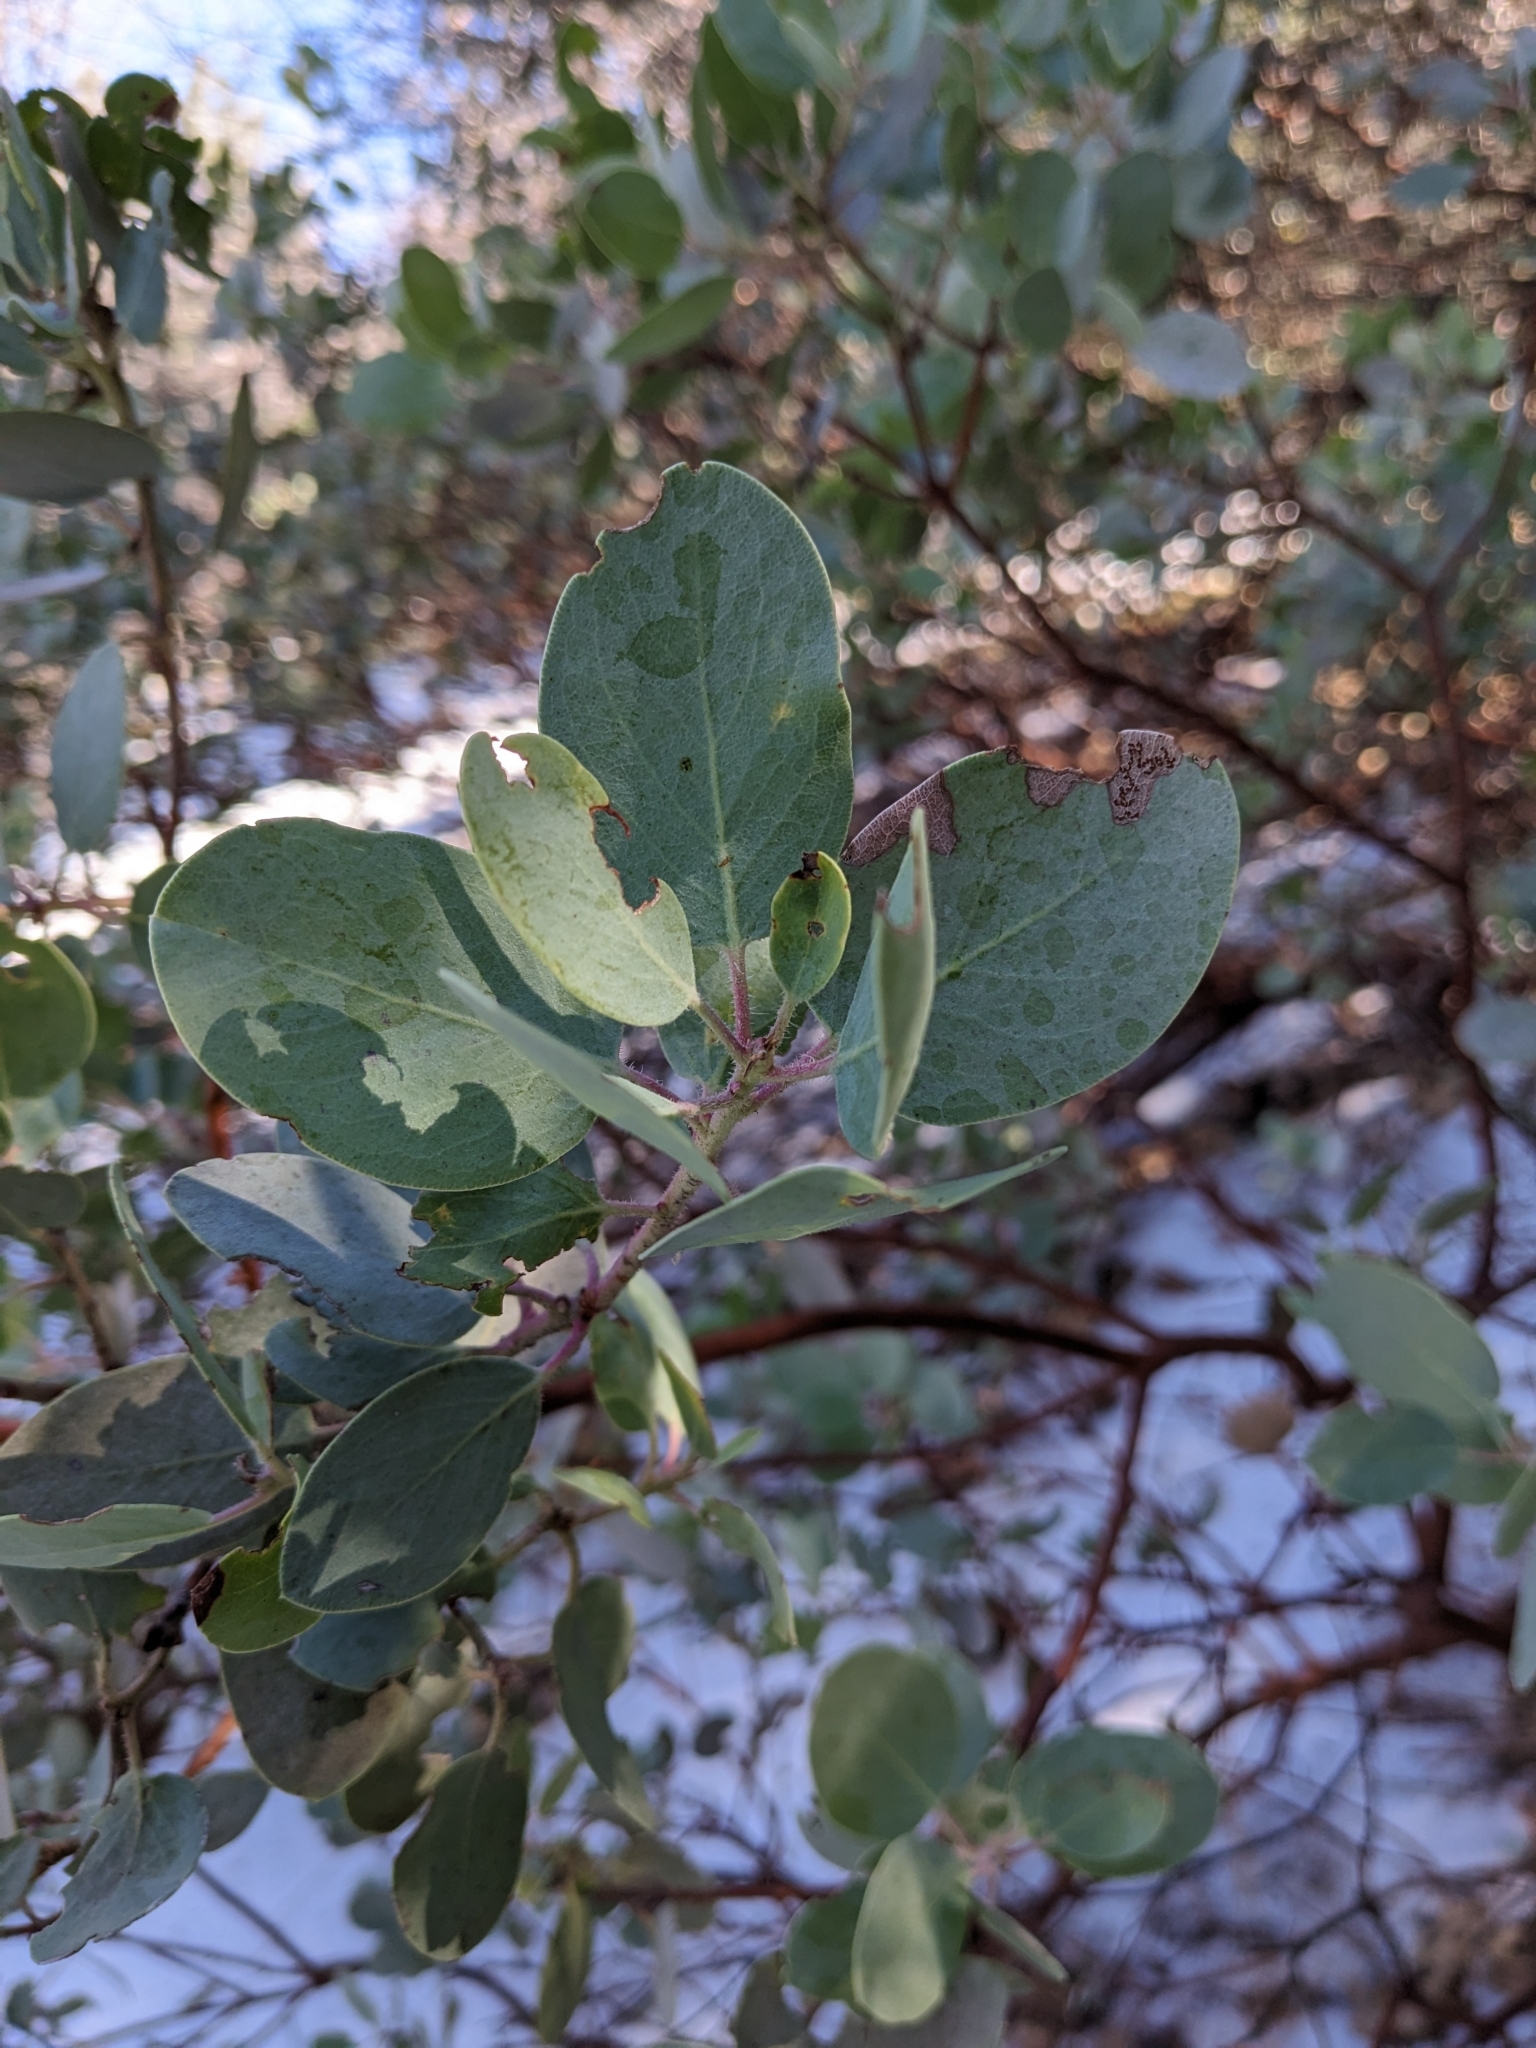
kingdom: Plantae
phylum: Tracheophyta
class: Magnoliopsida
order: Ericales
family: Ericaceae
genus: Arctostaphylos
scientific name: Arctostaphylos glandulosa
